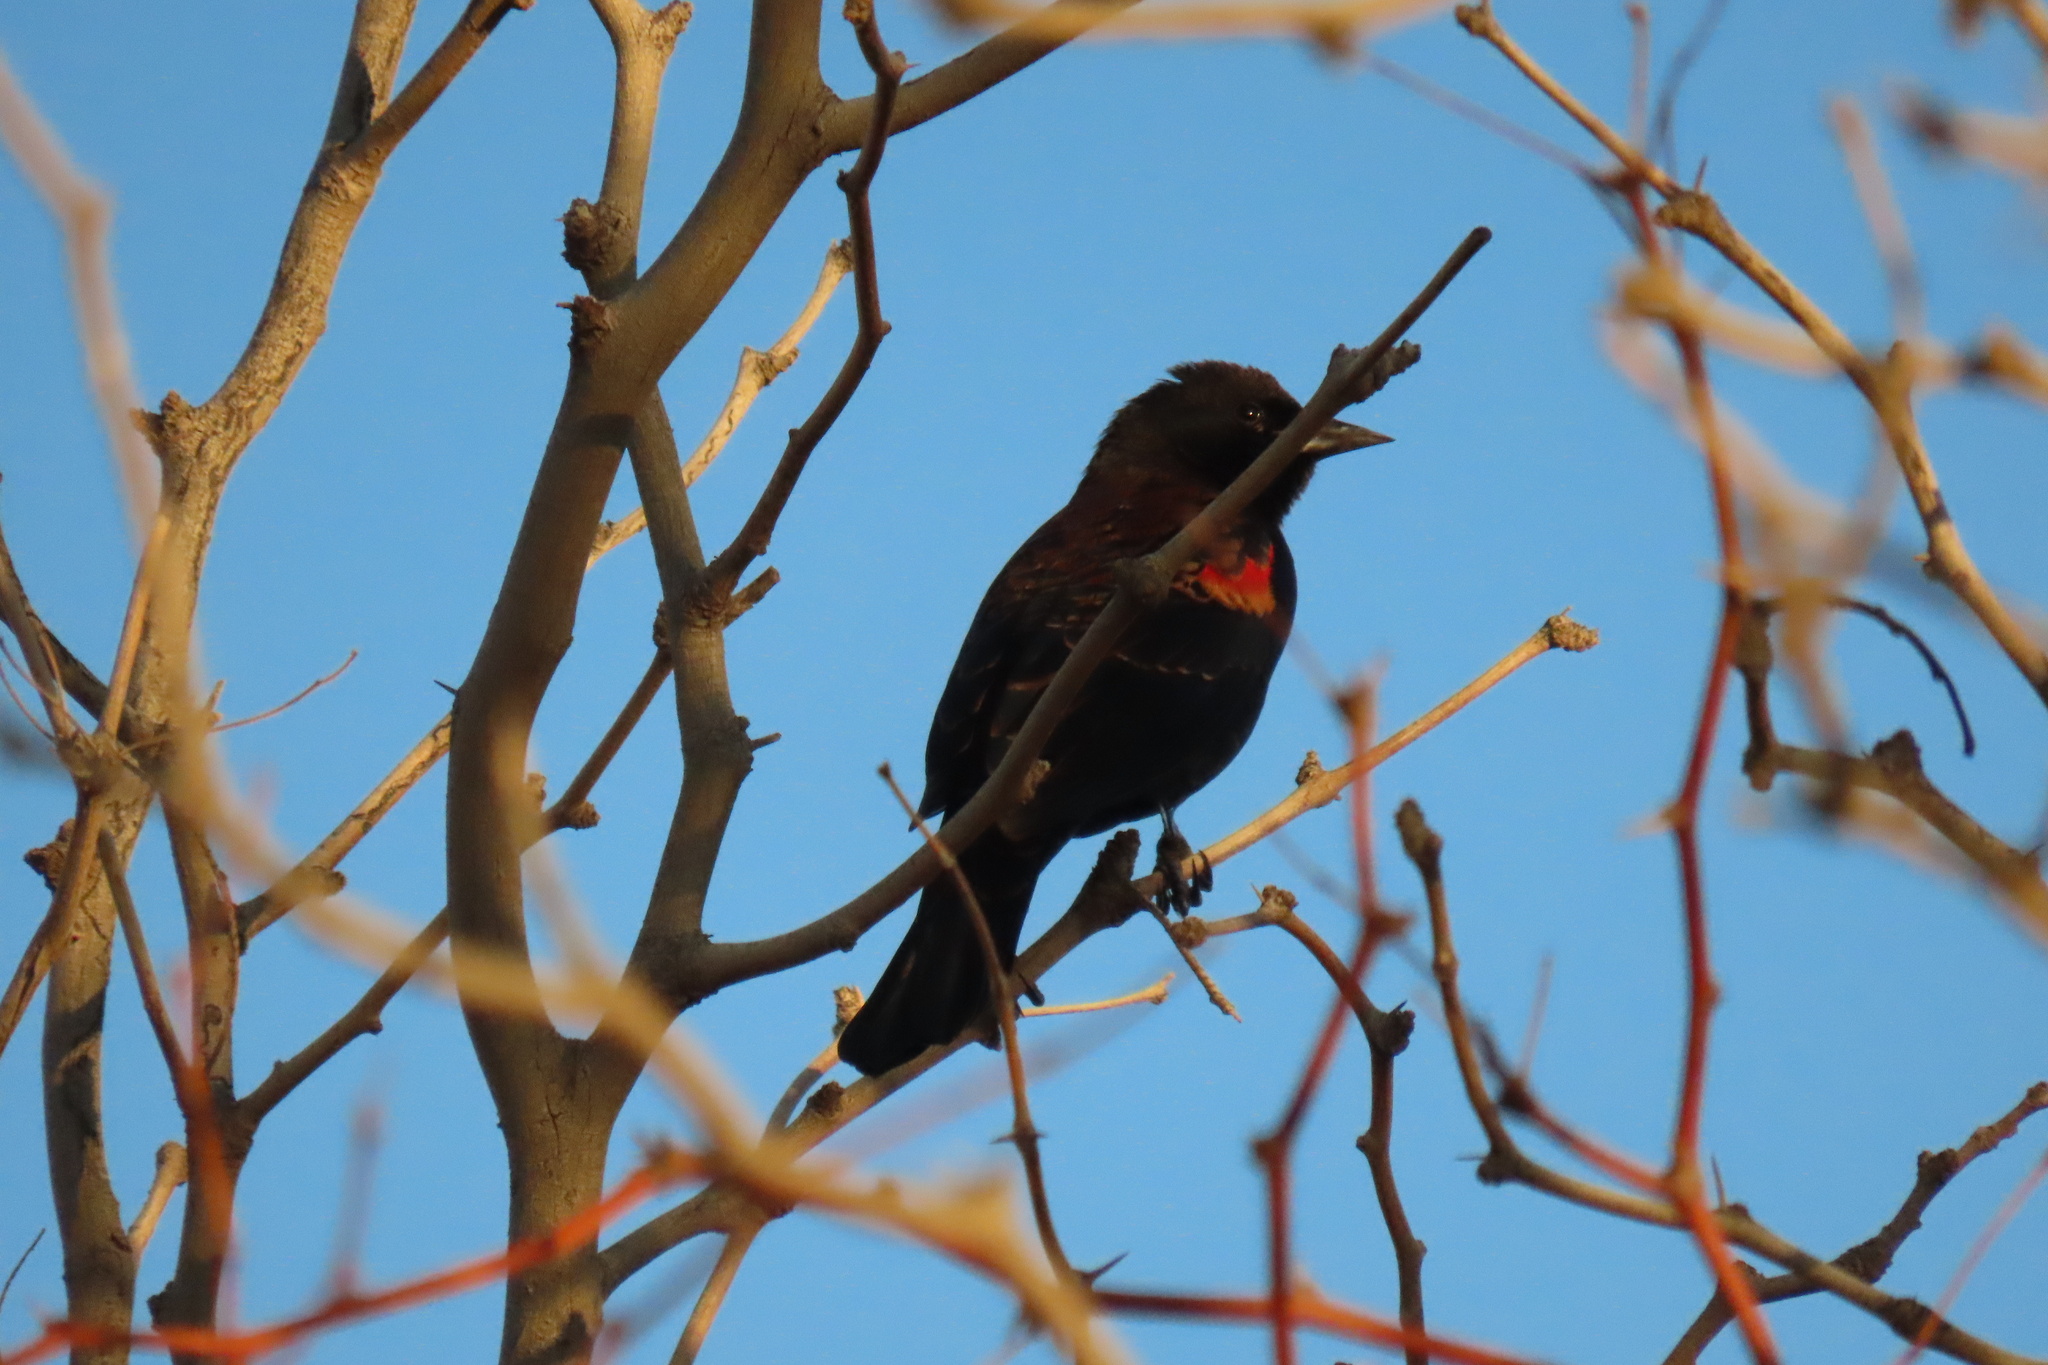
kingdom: Animalia
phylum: Chordata
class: Aves
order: Passeriformes
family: Icteridae
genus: Agelaius
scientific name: Agelaius phoeniceus
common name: Red-winged blackbird
